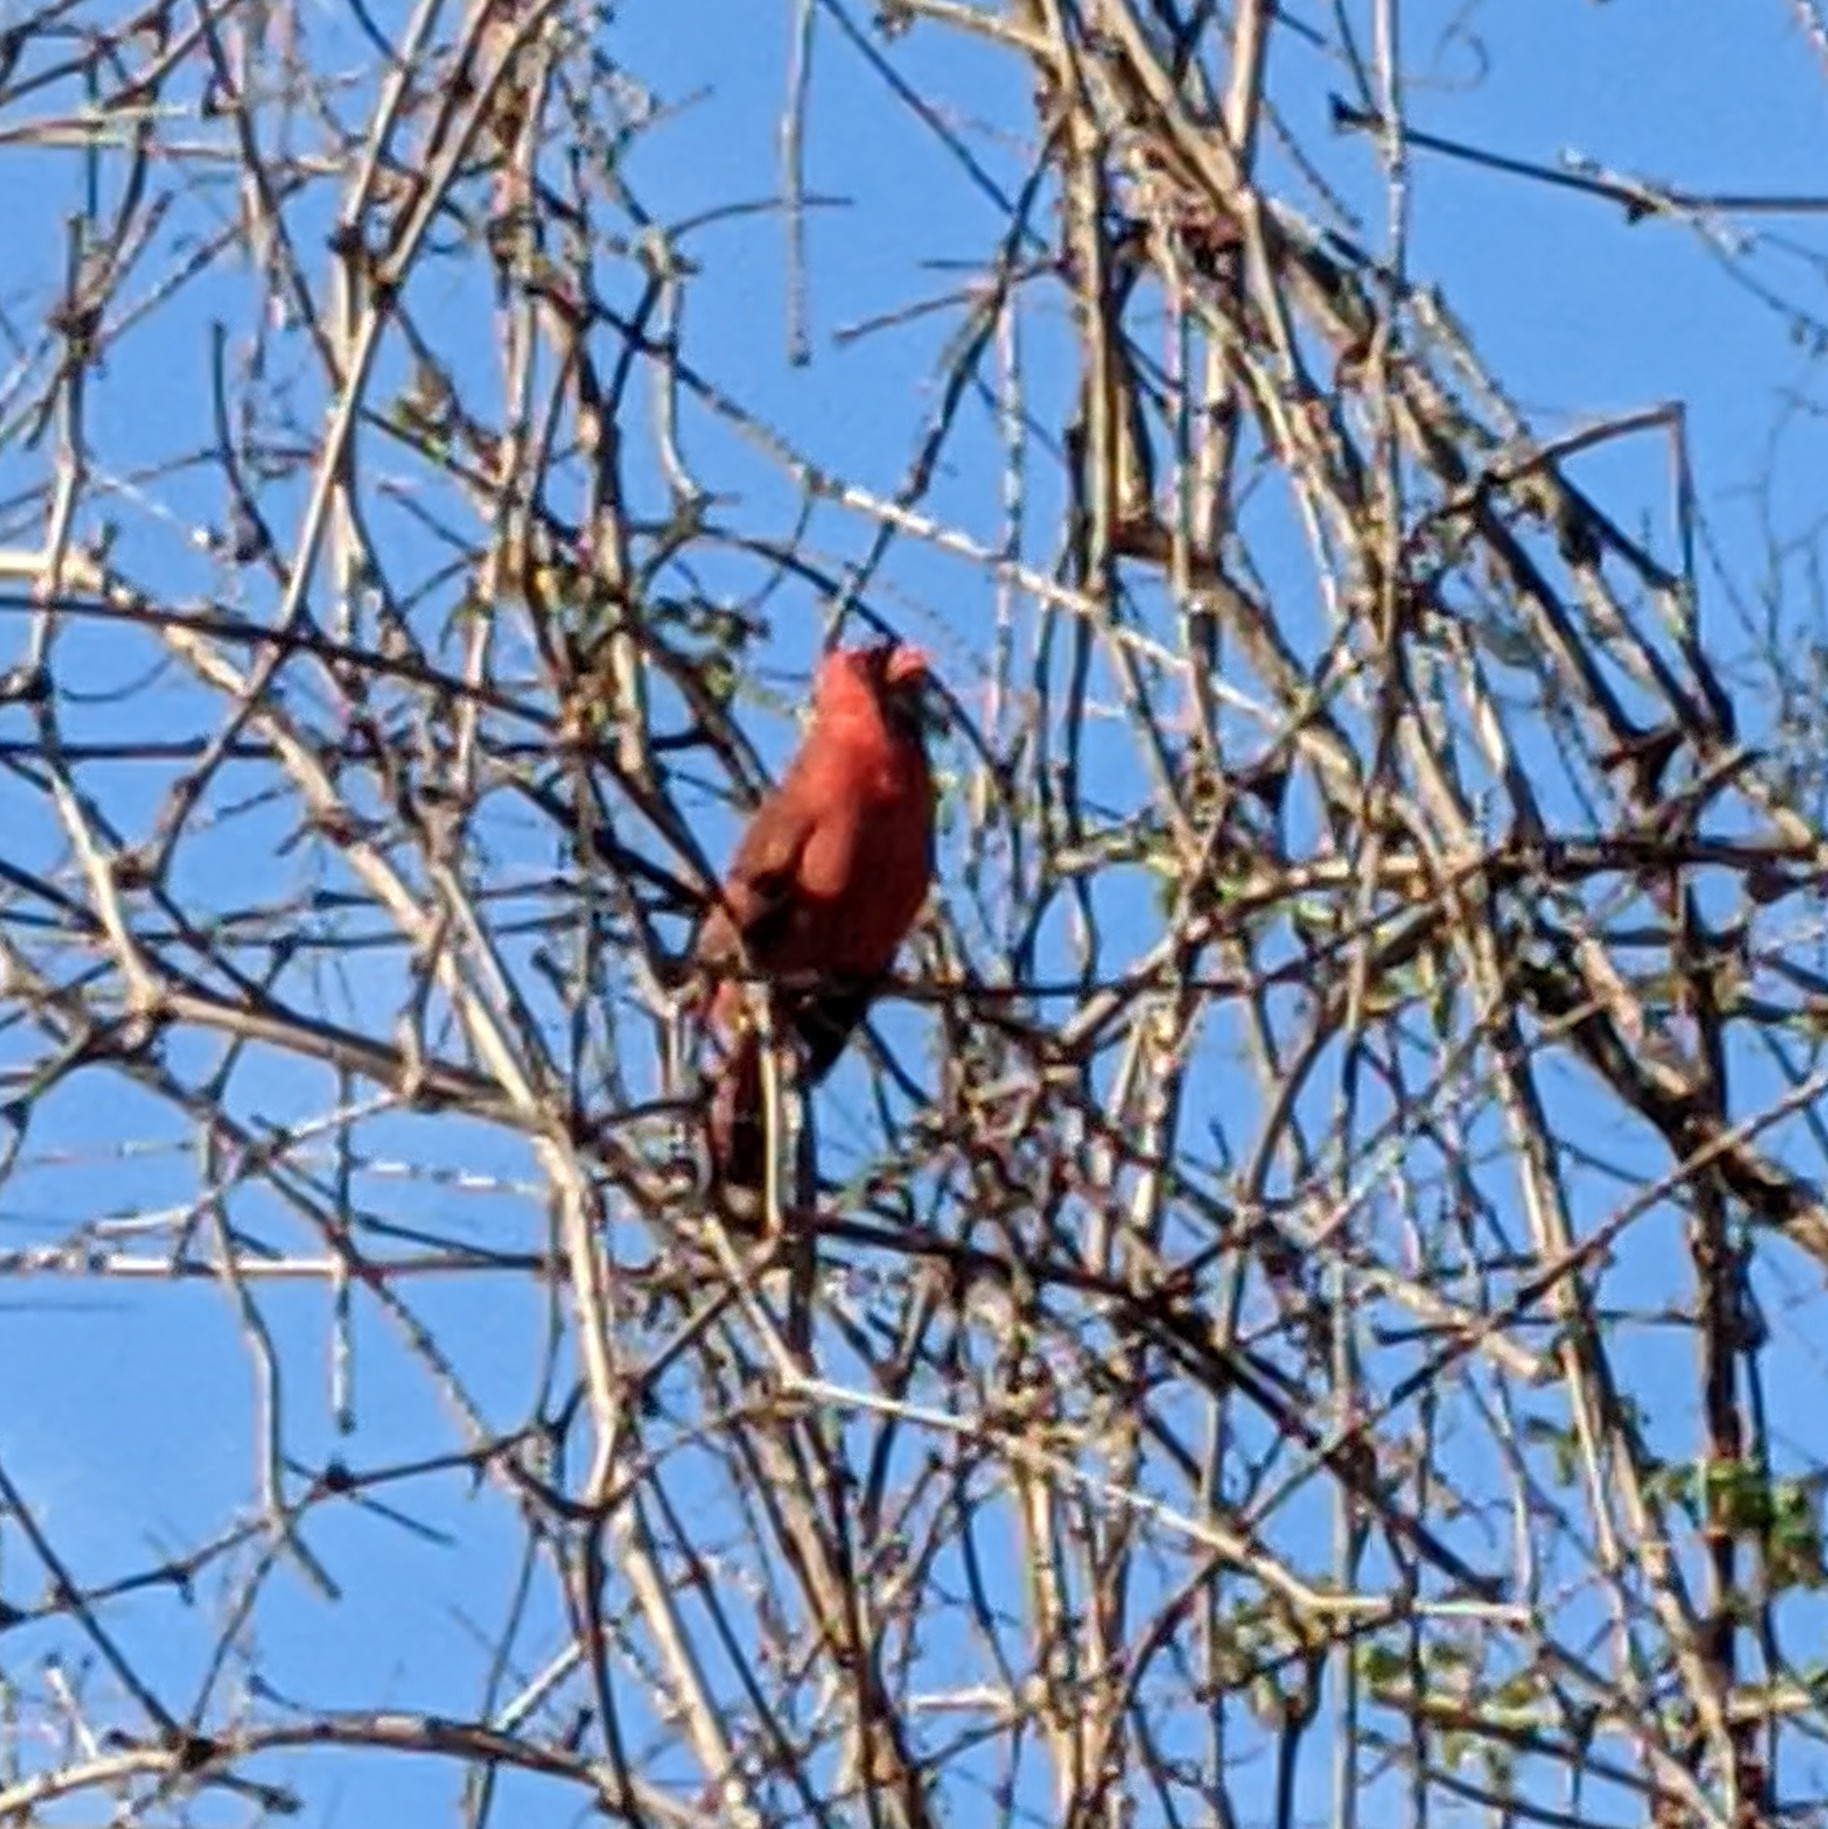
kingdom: Animalia
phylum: Chordata
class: Aves
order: Passeriformes
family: Cardinalidae
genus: Cardinalis
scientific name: Cardinalis cardinalis
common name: Northern cardinal
